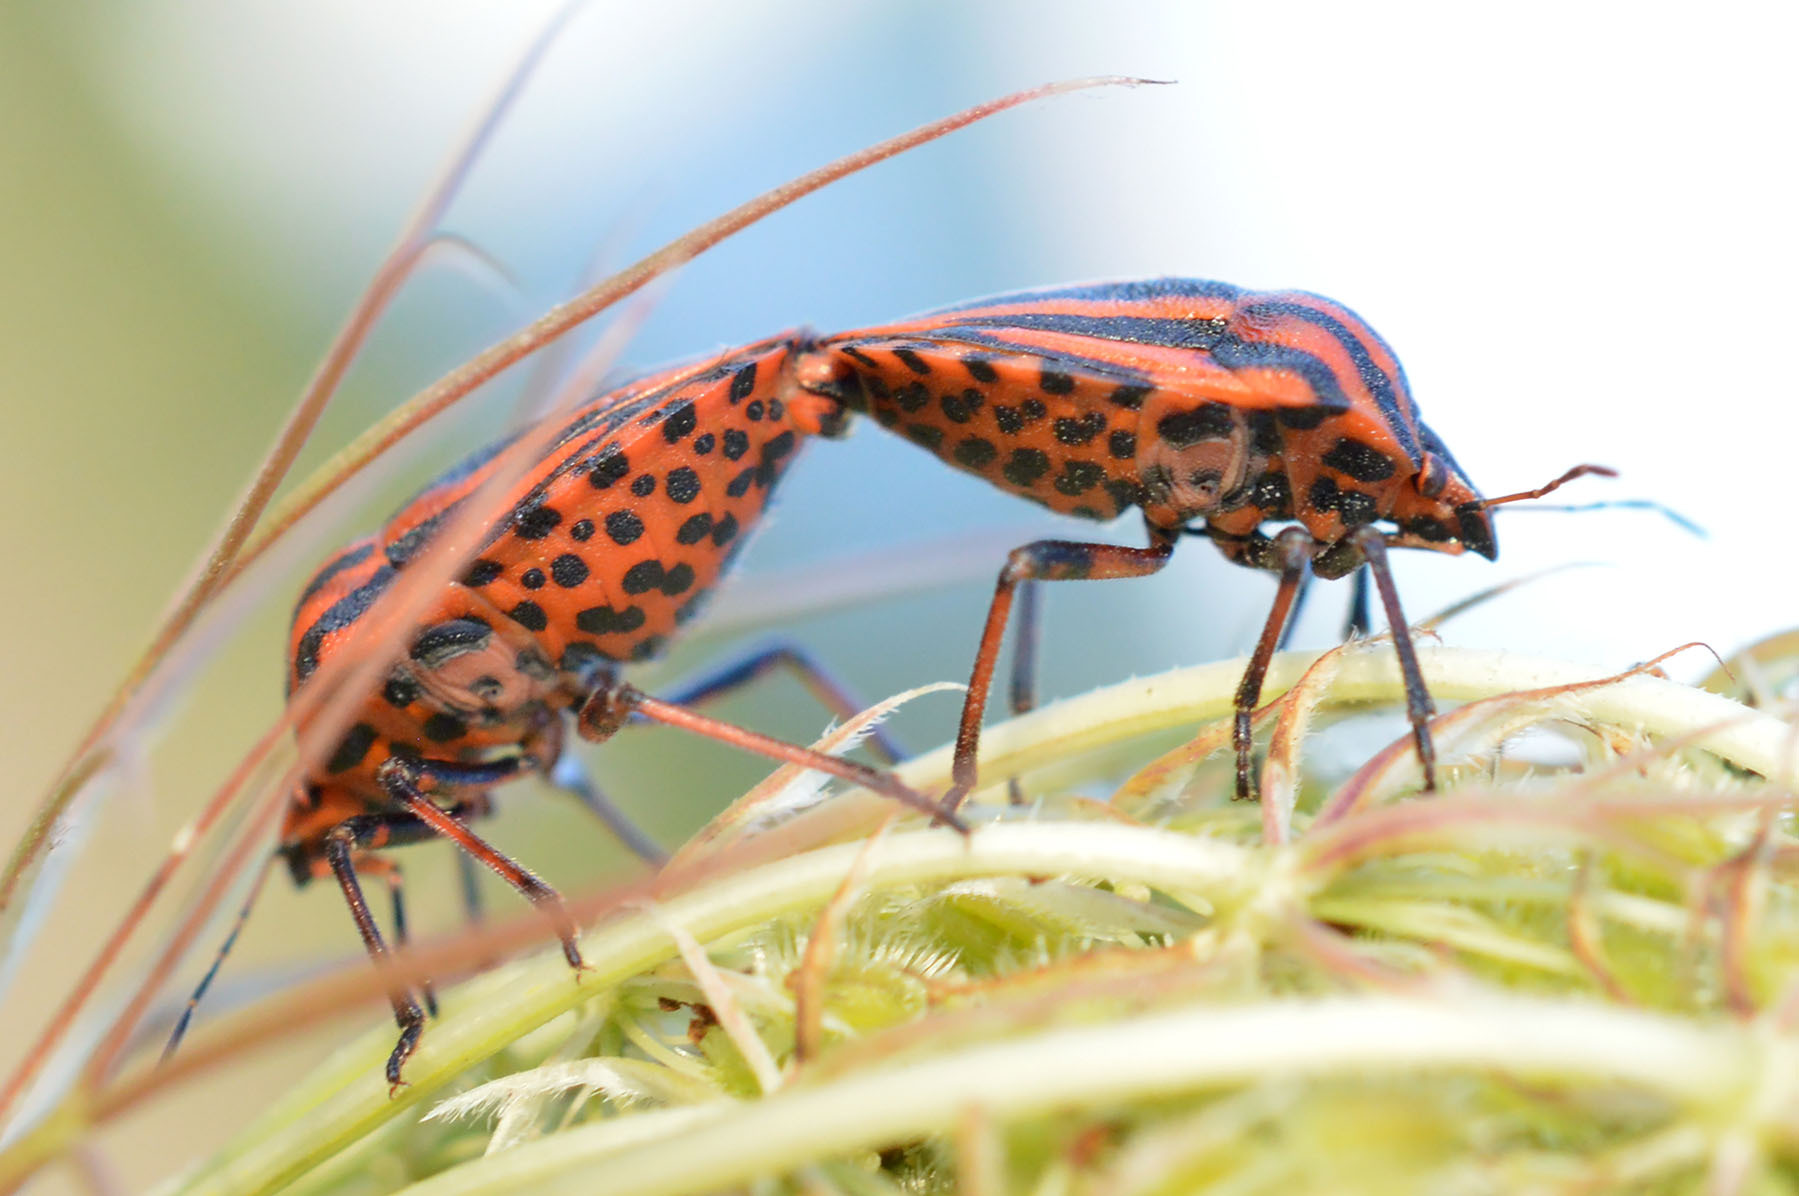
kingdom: Animalia
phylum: Arthropoda
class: Insecta
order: Hemiptera
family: Pentatomidae
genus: Graphosoma
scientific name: Graphosoma italicum
